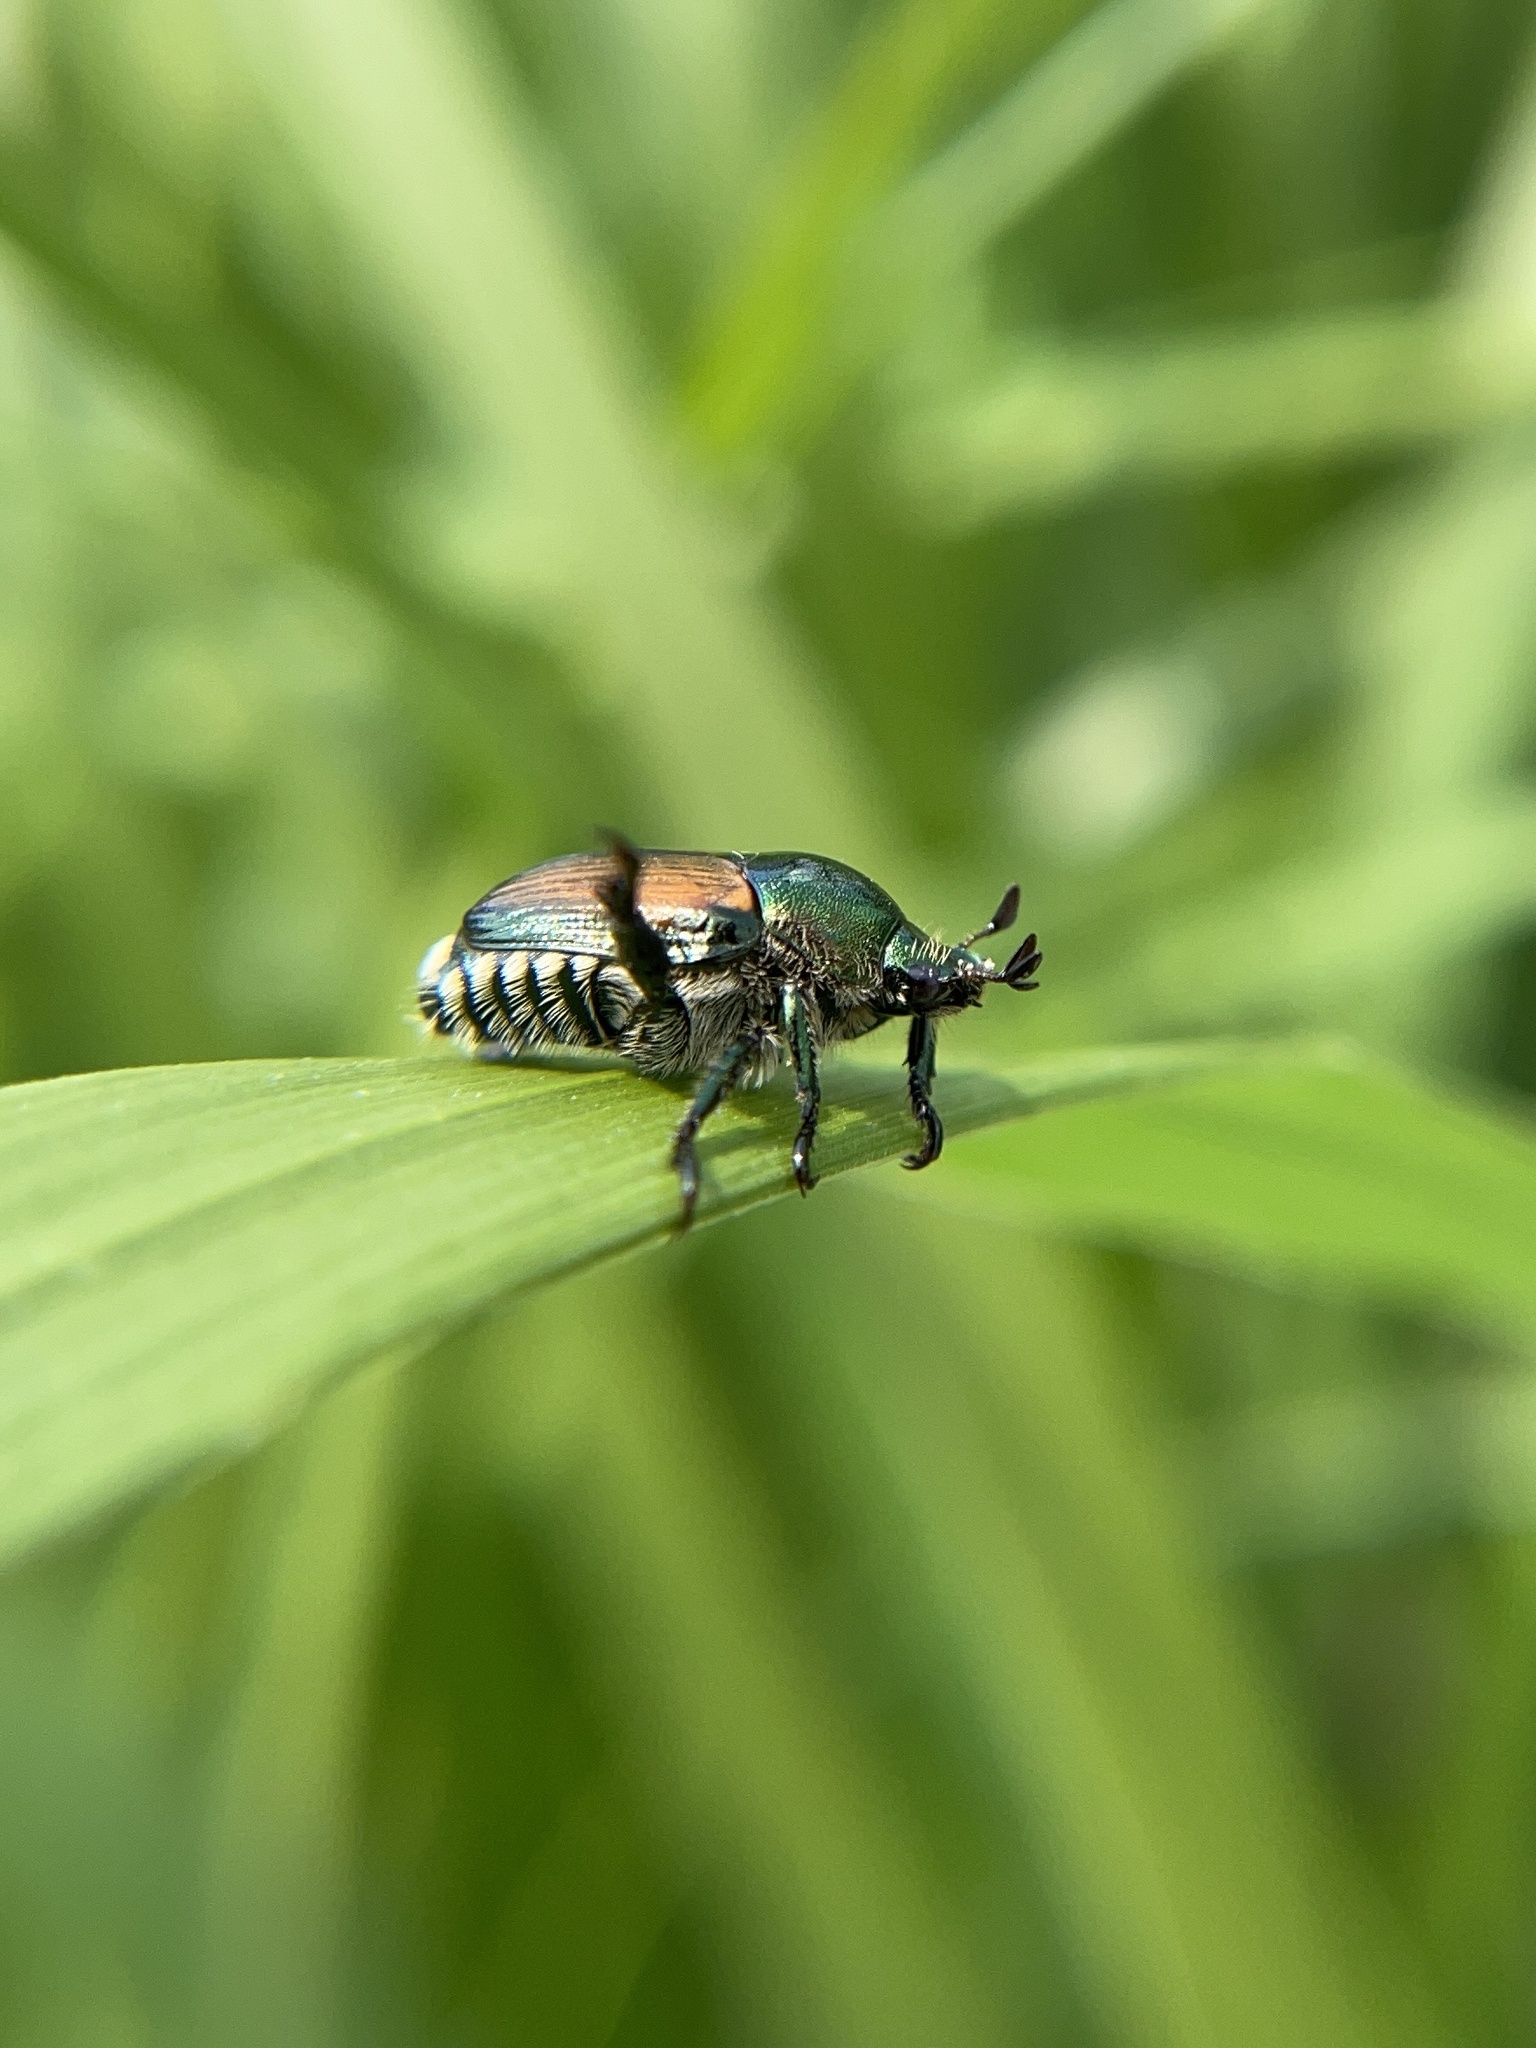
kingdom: Animalia
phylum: Arthropoda
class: Insecta
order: Coleoptera
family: Scarabaeidae
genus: Popillia
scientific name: Popillia japonica
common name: Japanese beetle
